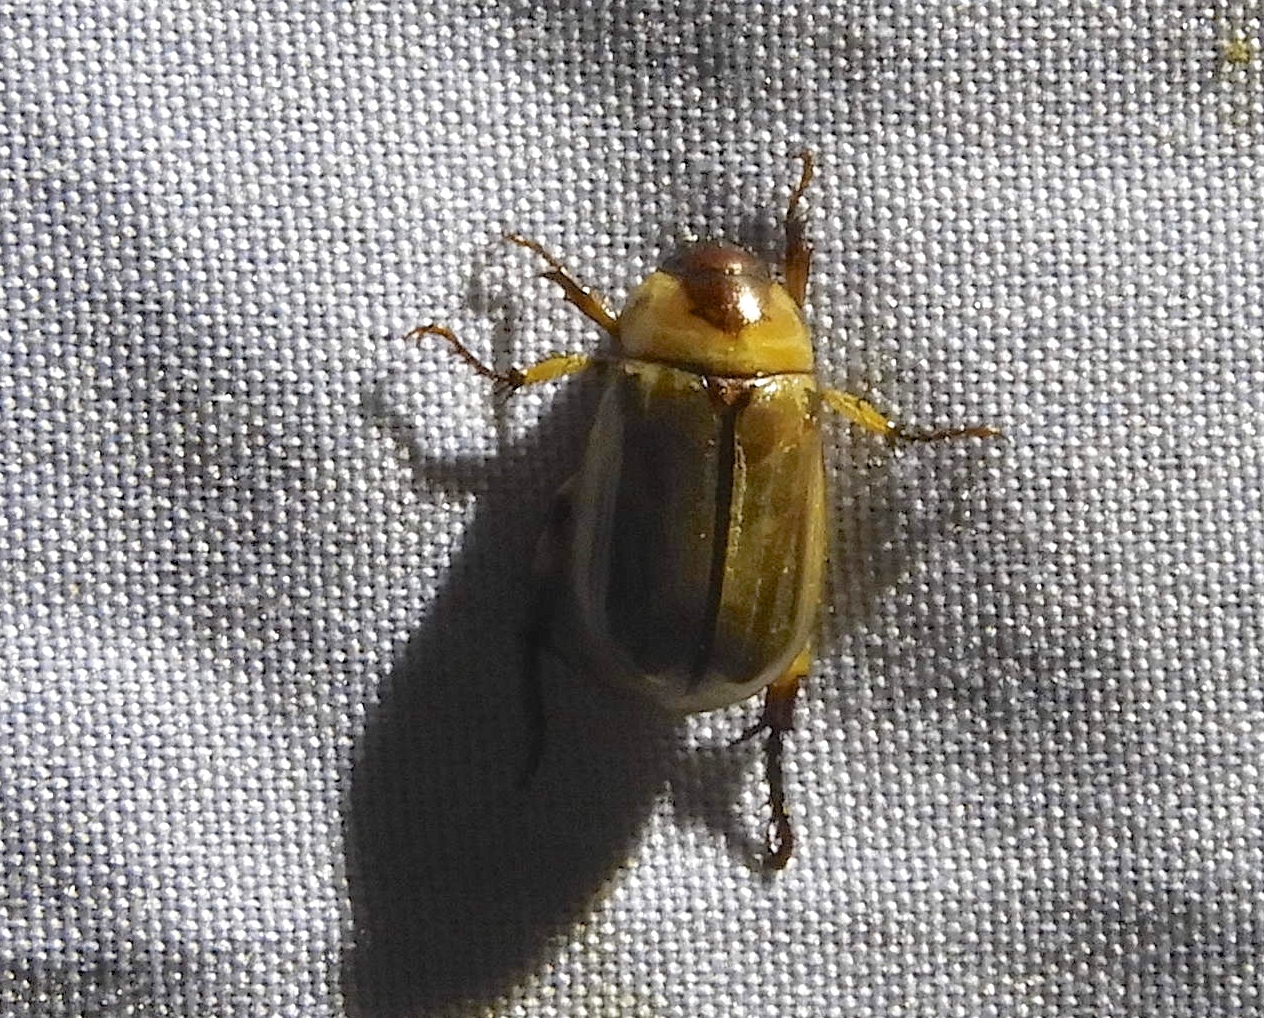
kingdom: Animalia
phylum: Arthropoda
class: Insecta
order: Coleoptera
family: Scarabaeidae
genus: Paranomala
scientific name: Paranomala
